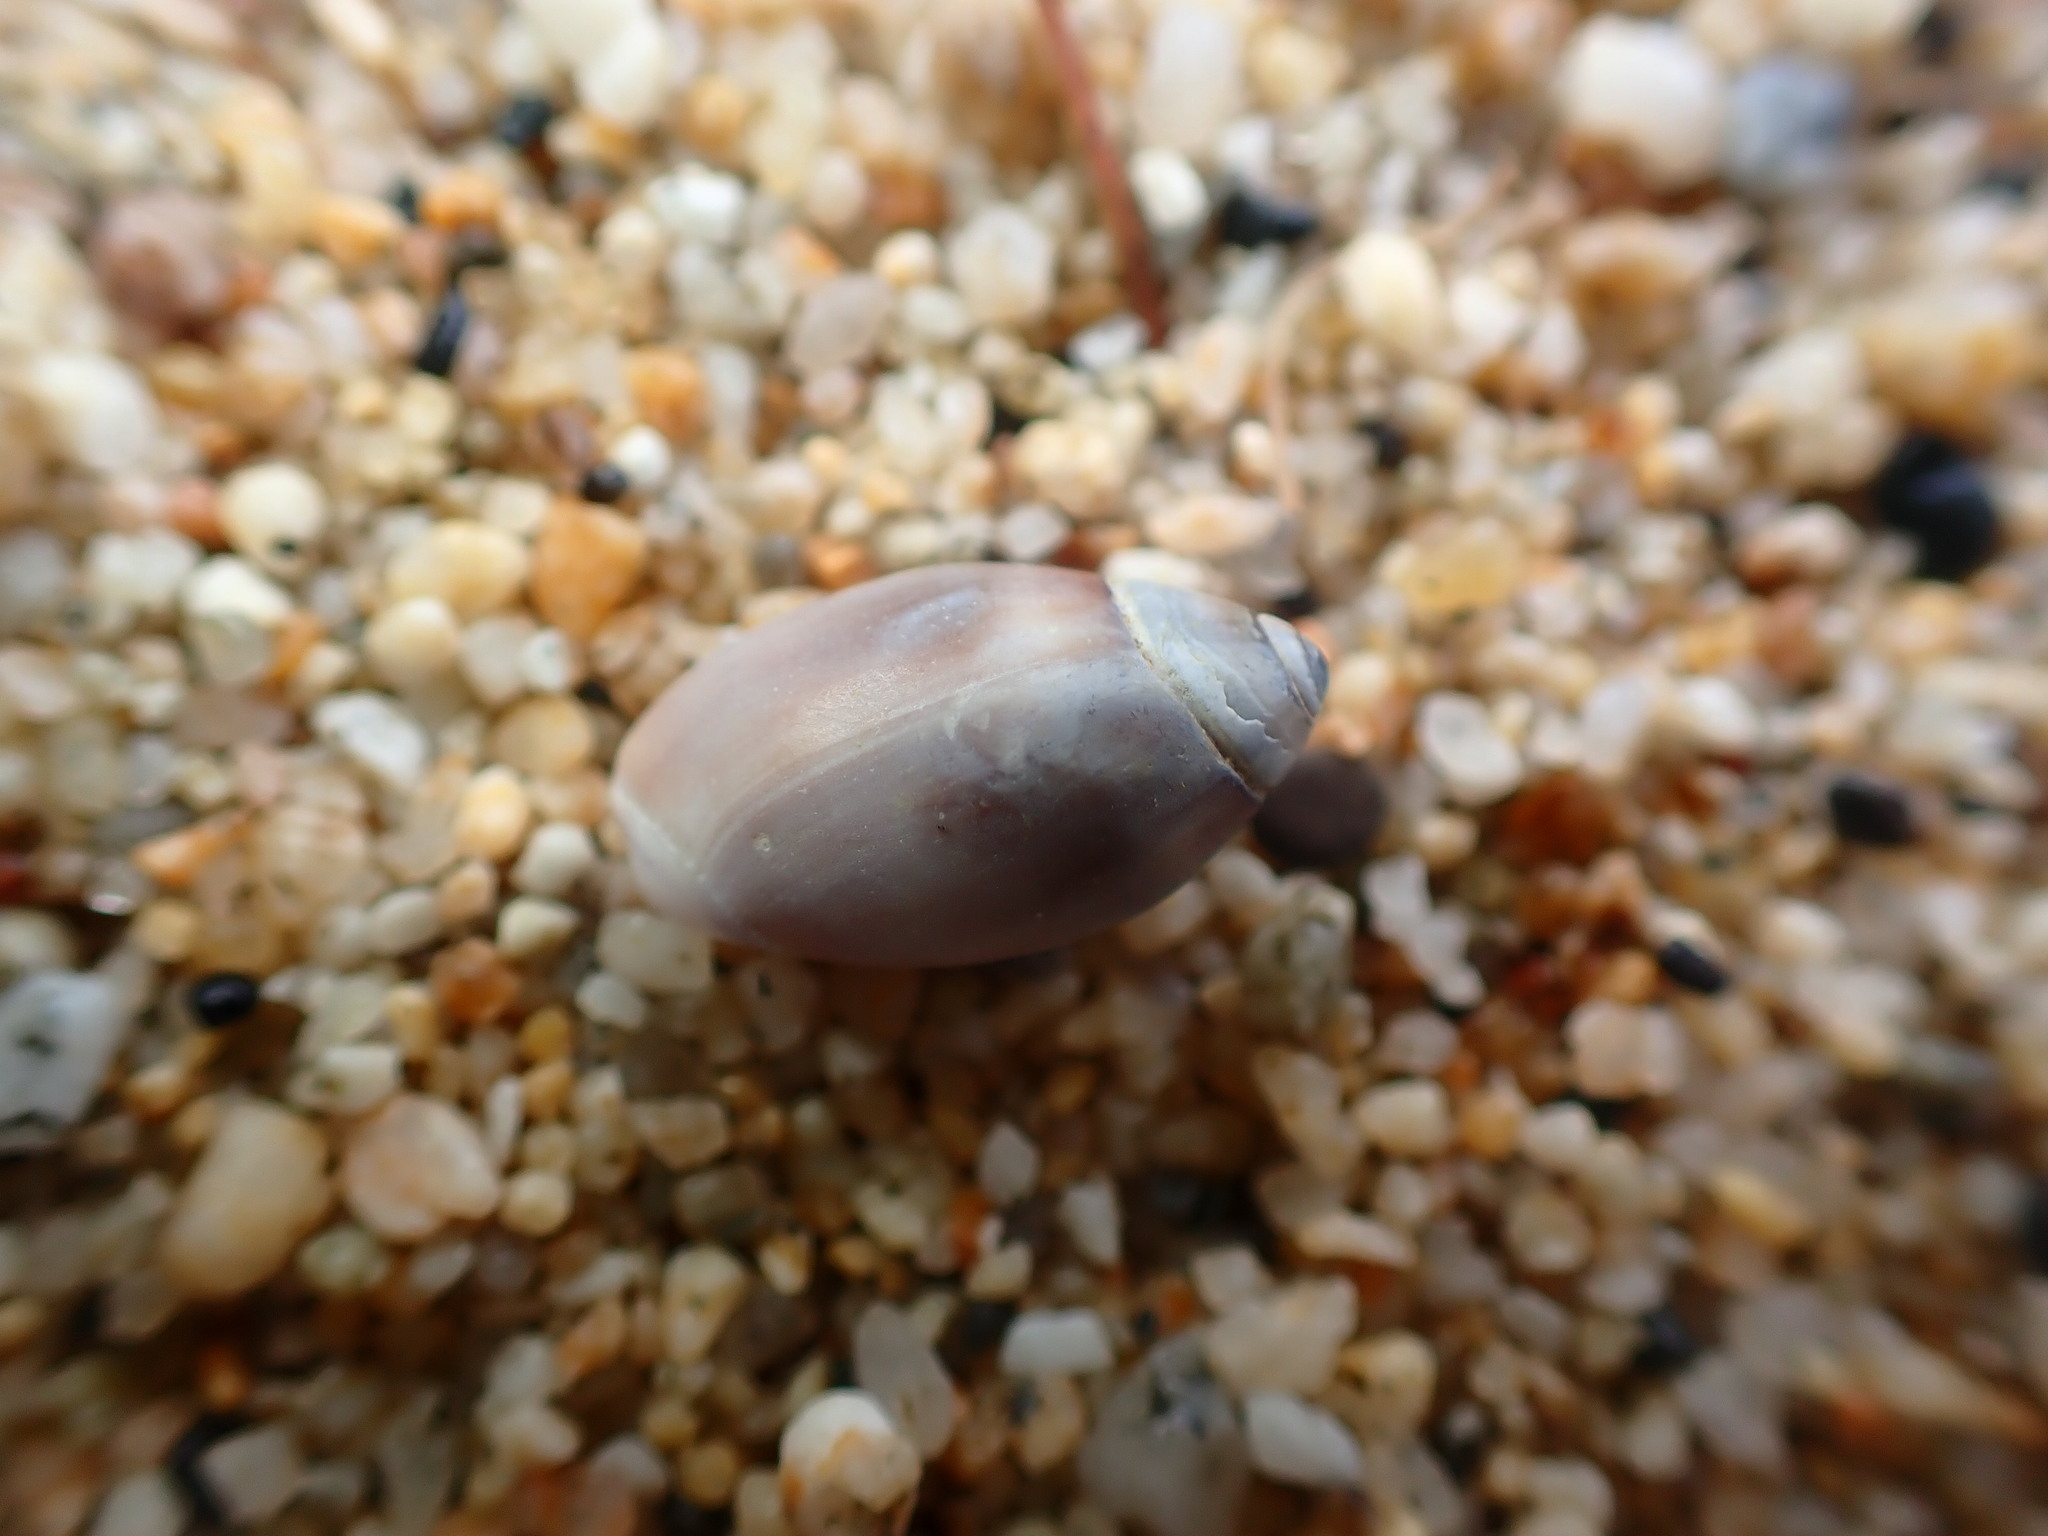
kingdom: Animalia
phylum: Mollusca
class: Gastropoda
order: Neogastropoda
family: Olividae
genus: Callianax
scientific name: Callianax biplicata
